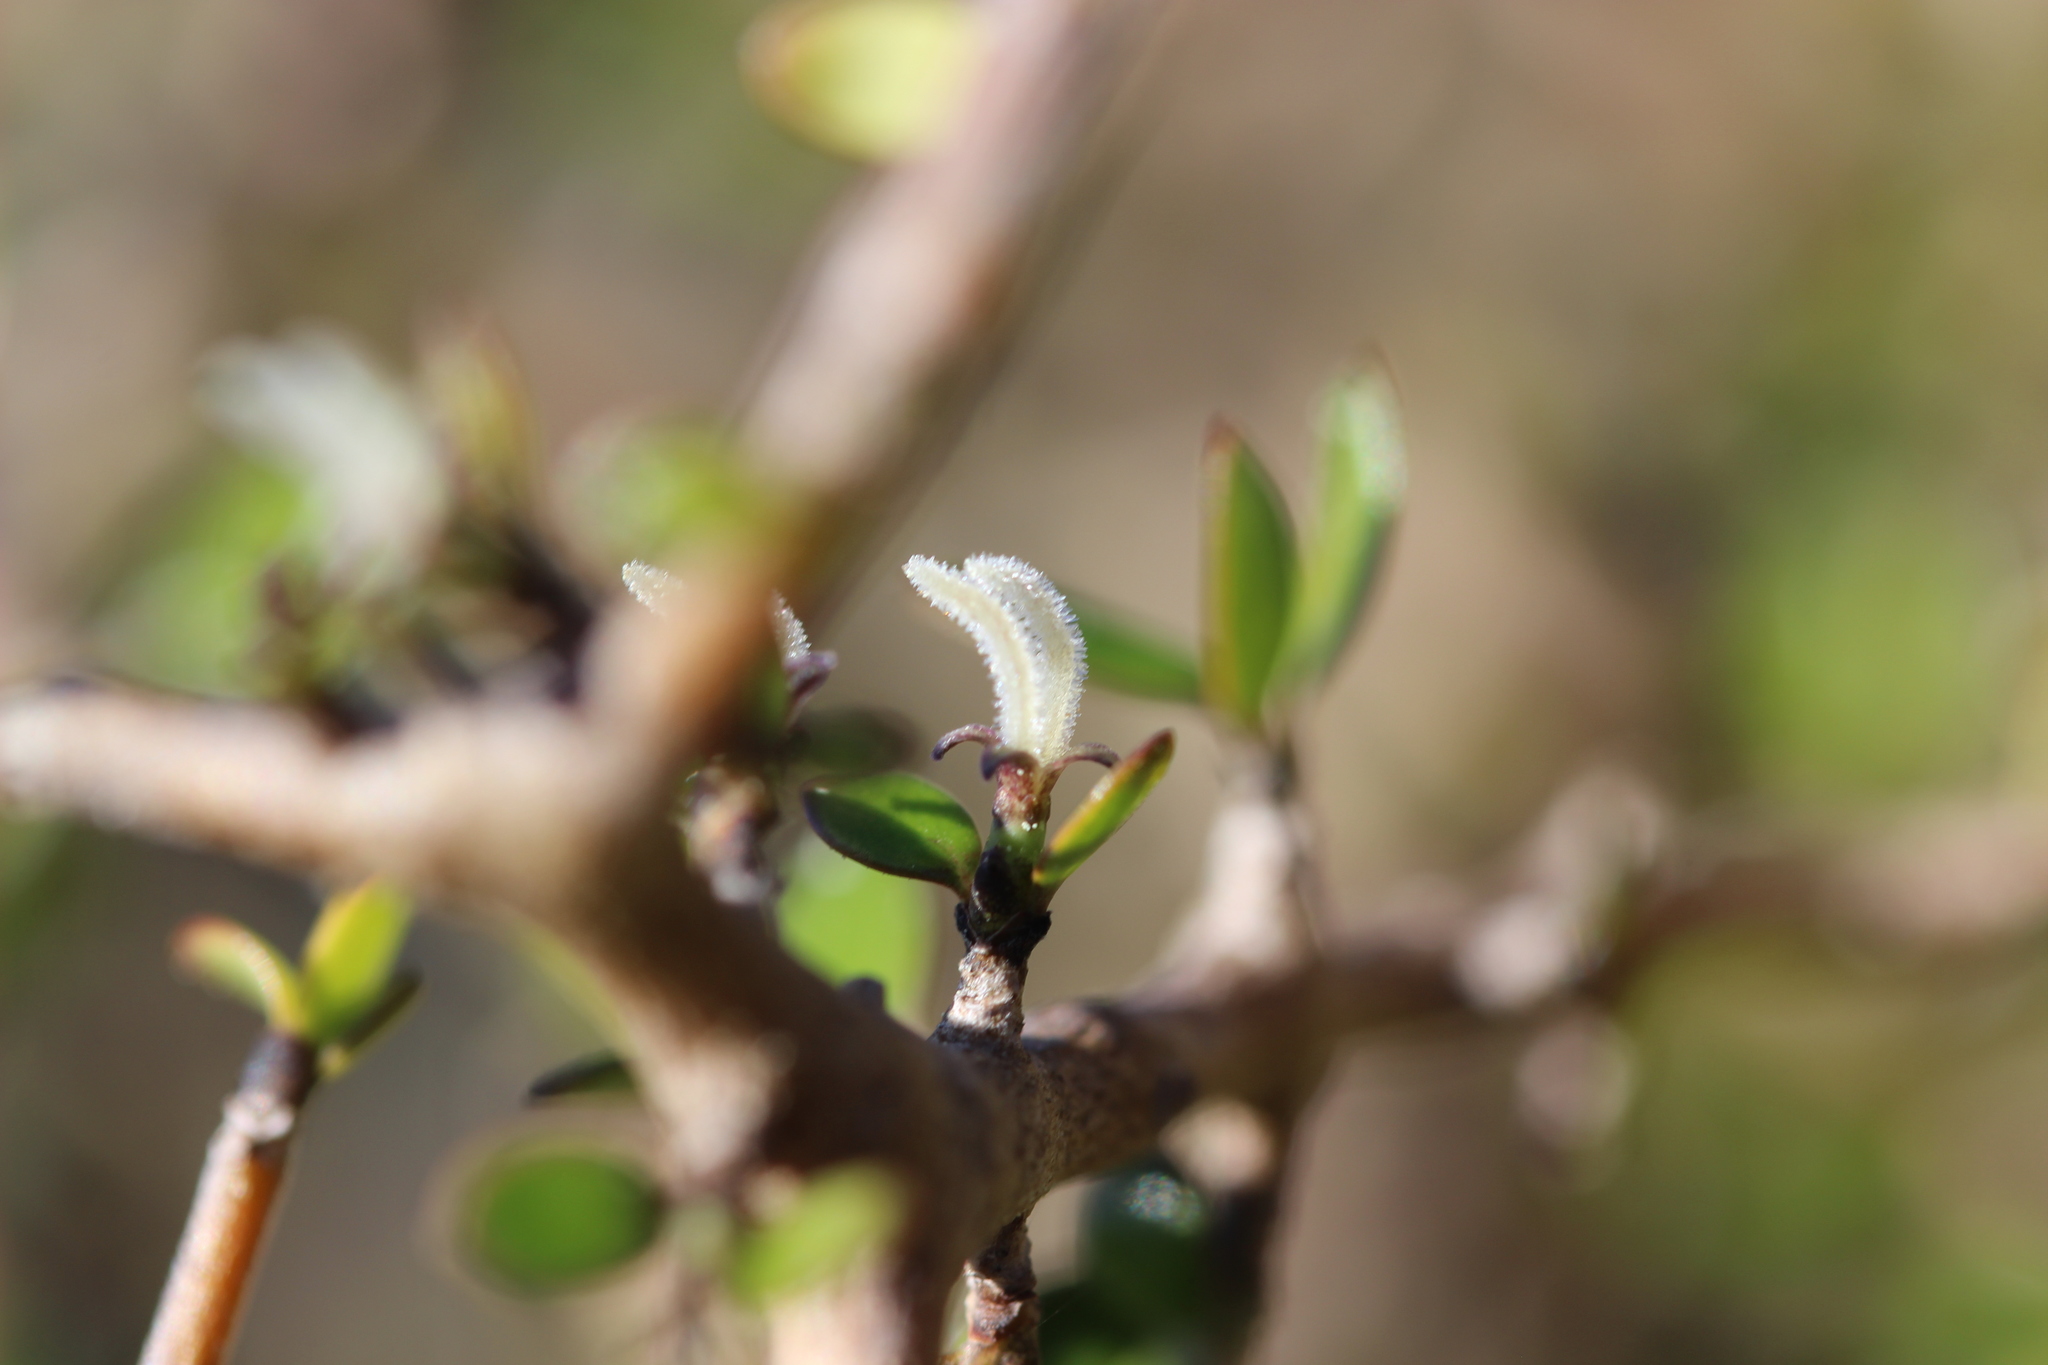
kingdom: Plantae
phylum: Tracheophyta
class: Magnoliopsida
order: Gentianales
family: Rubiaceae
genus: Coprosma
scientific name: Coprosma propinqua
